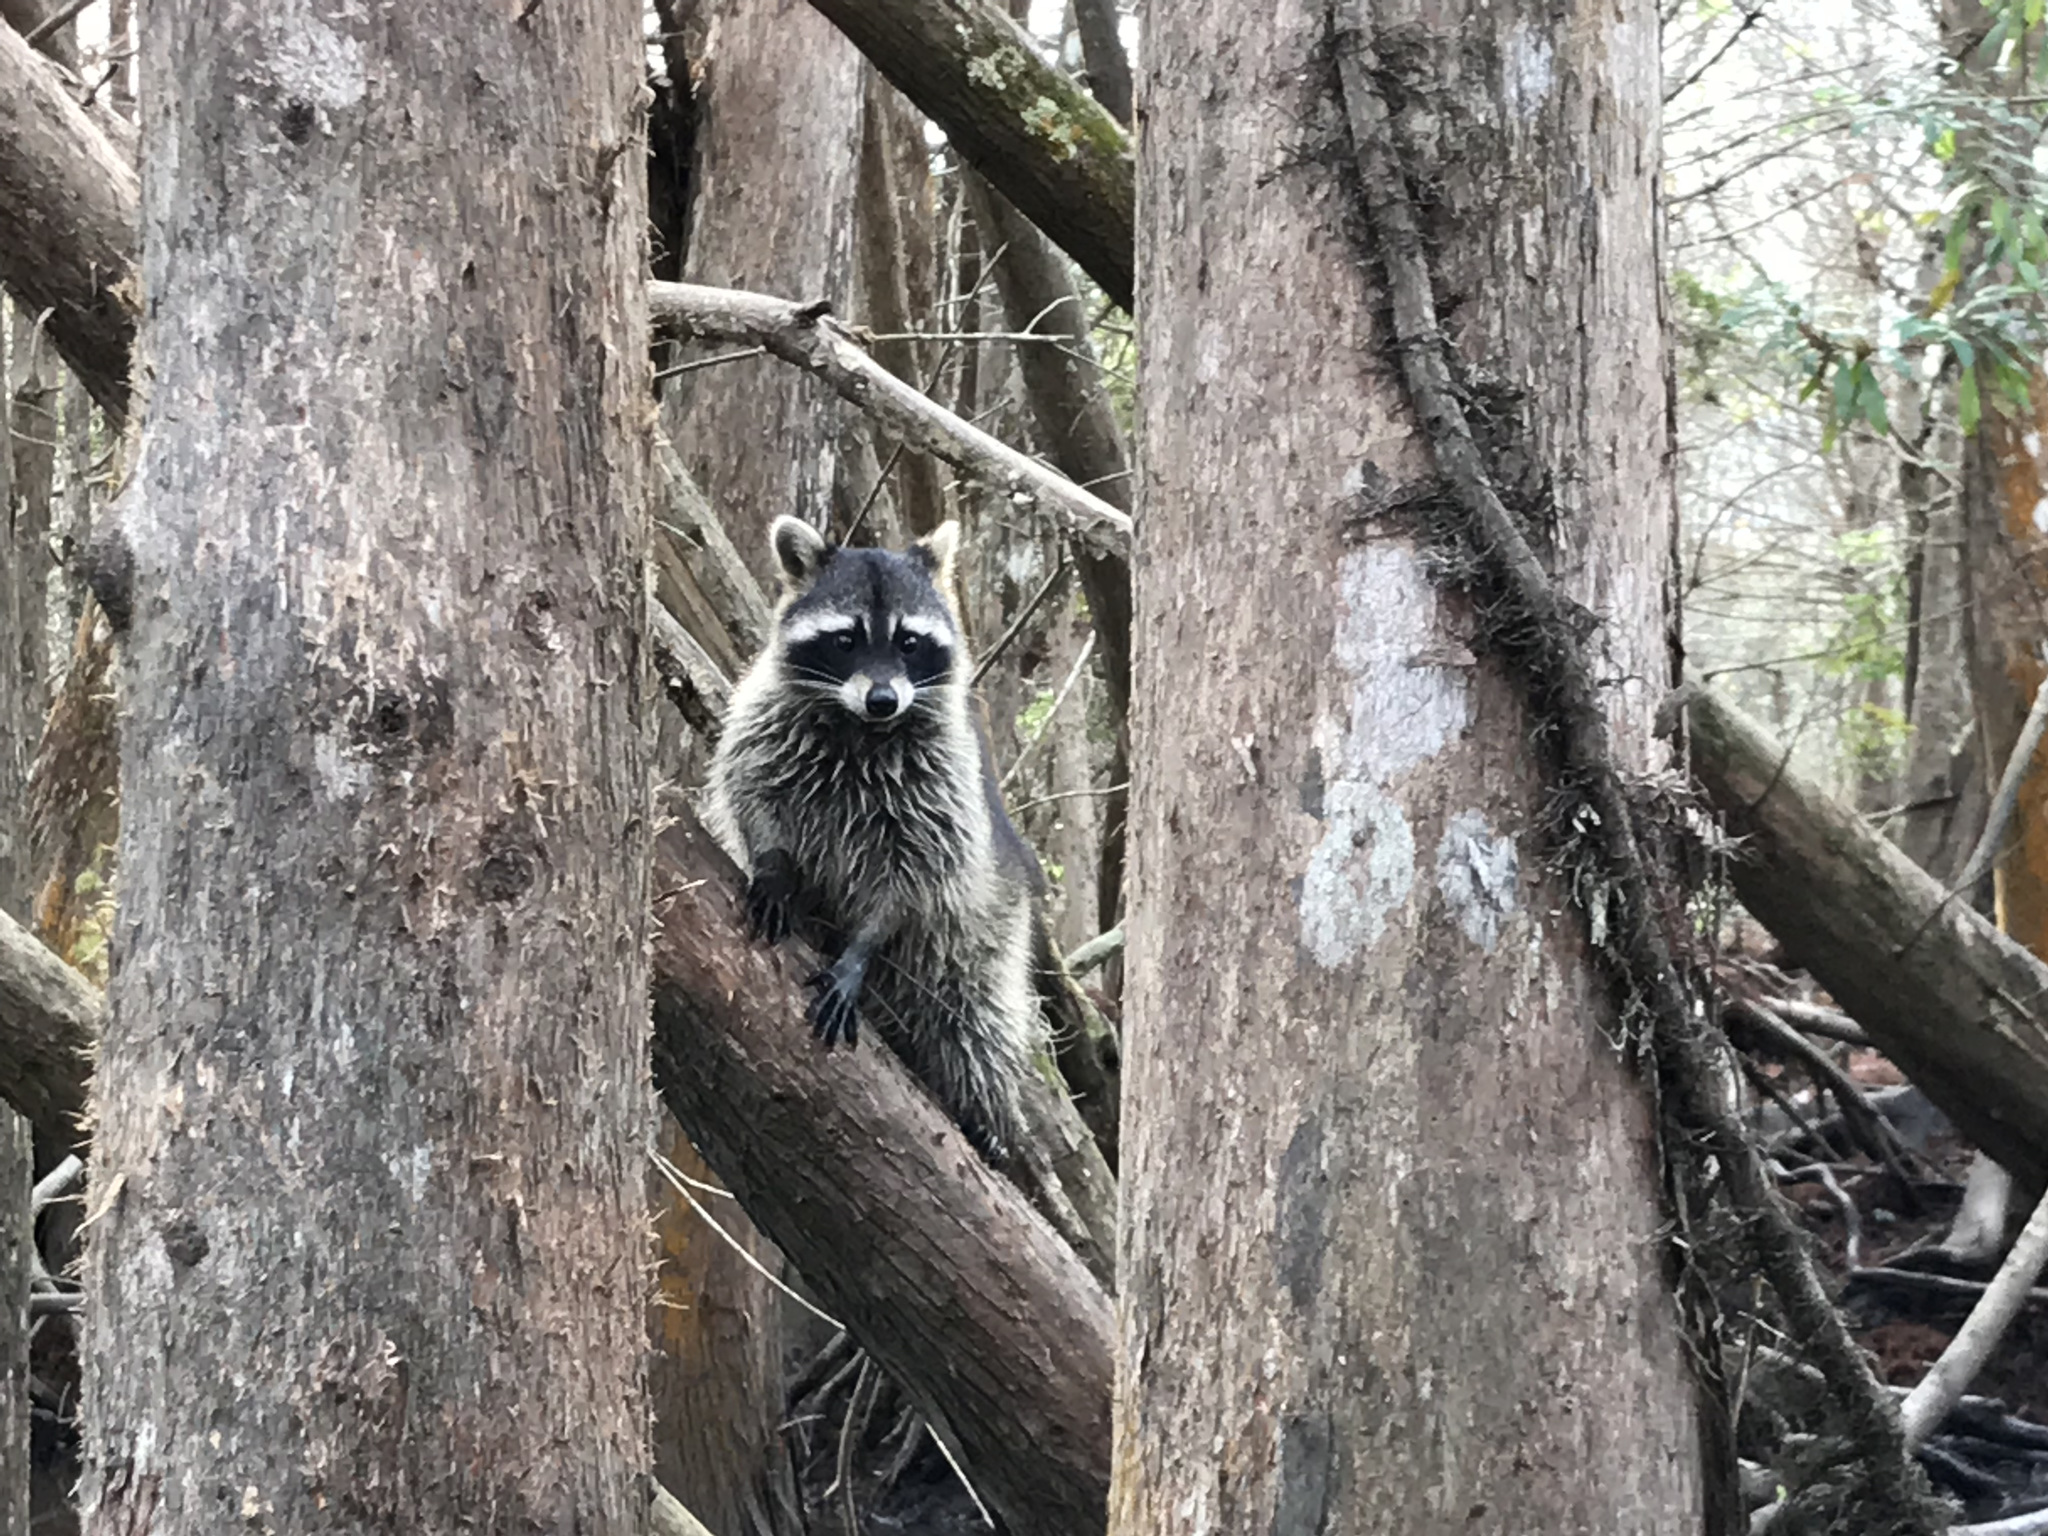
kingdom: Animalia
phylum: Chordata
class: Mammalia
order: Carnivora
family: Procyonidae
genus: Procyon
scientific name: Procyon lotor
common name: Raccoon
